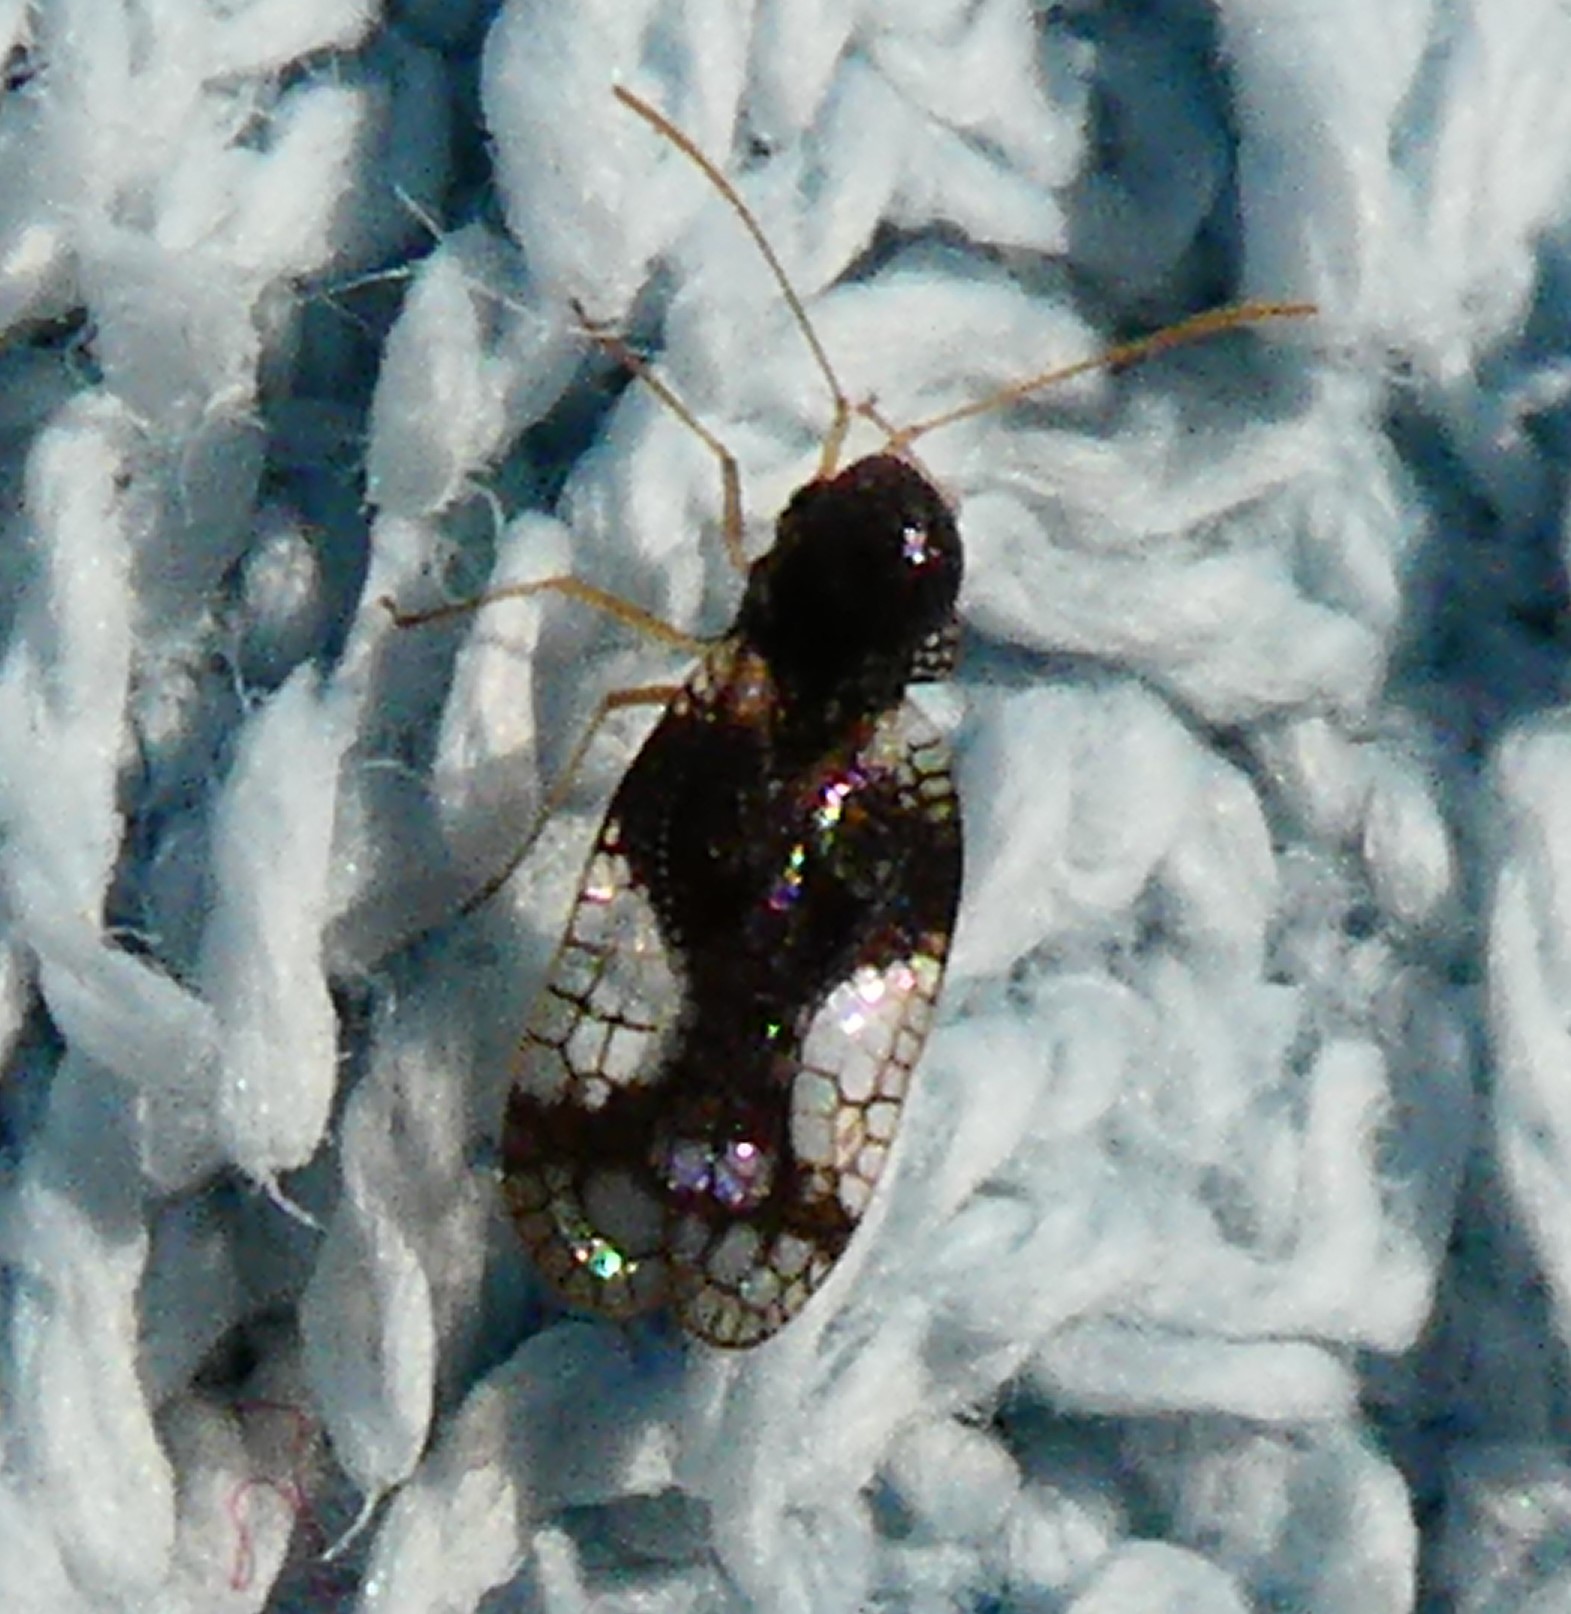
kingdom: Animalia
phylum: Arthropoda
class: Insecta
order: Hemiptera
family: Tingidae
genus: Stephanitis
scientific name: Stephanitis takeyai
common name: Andromeda lacebug
